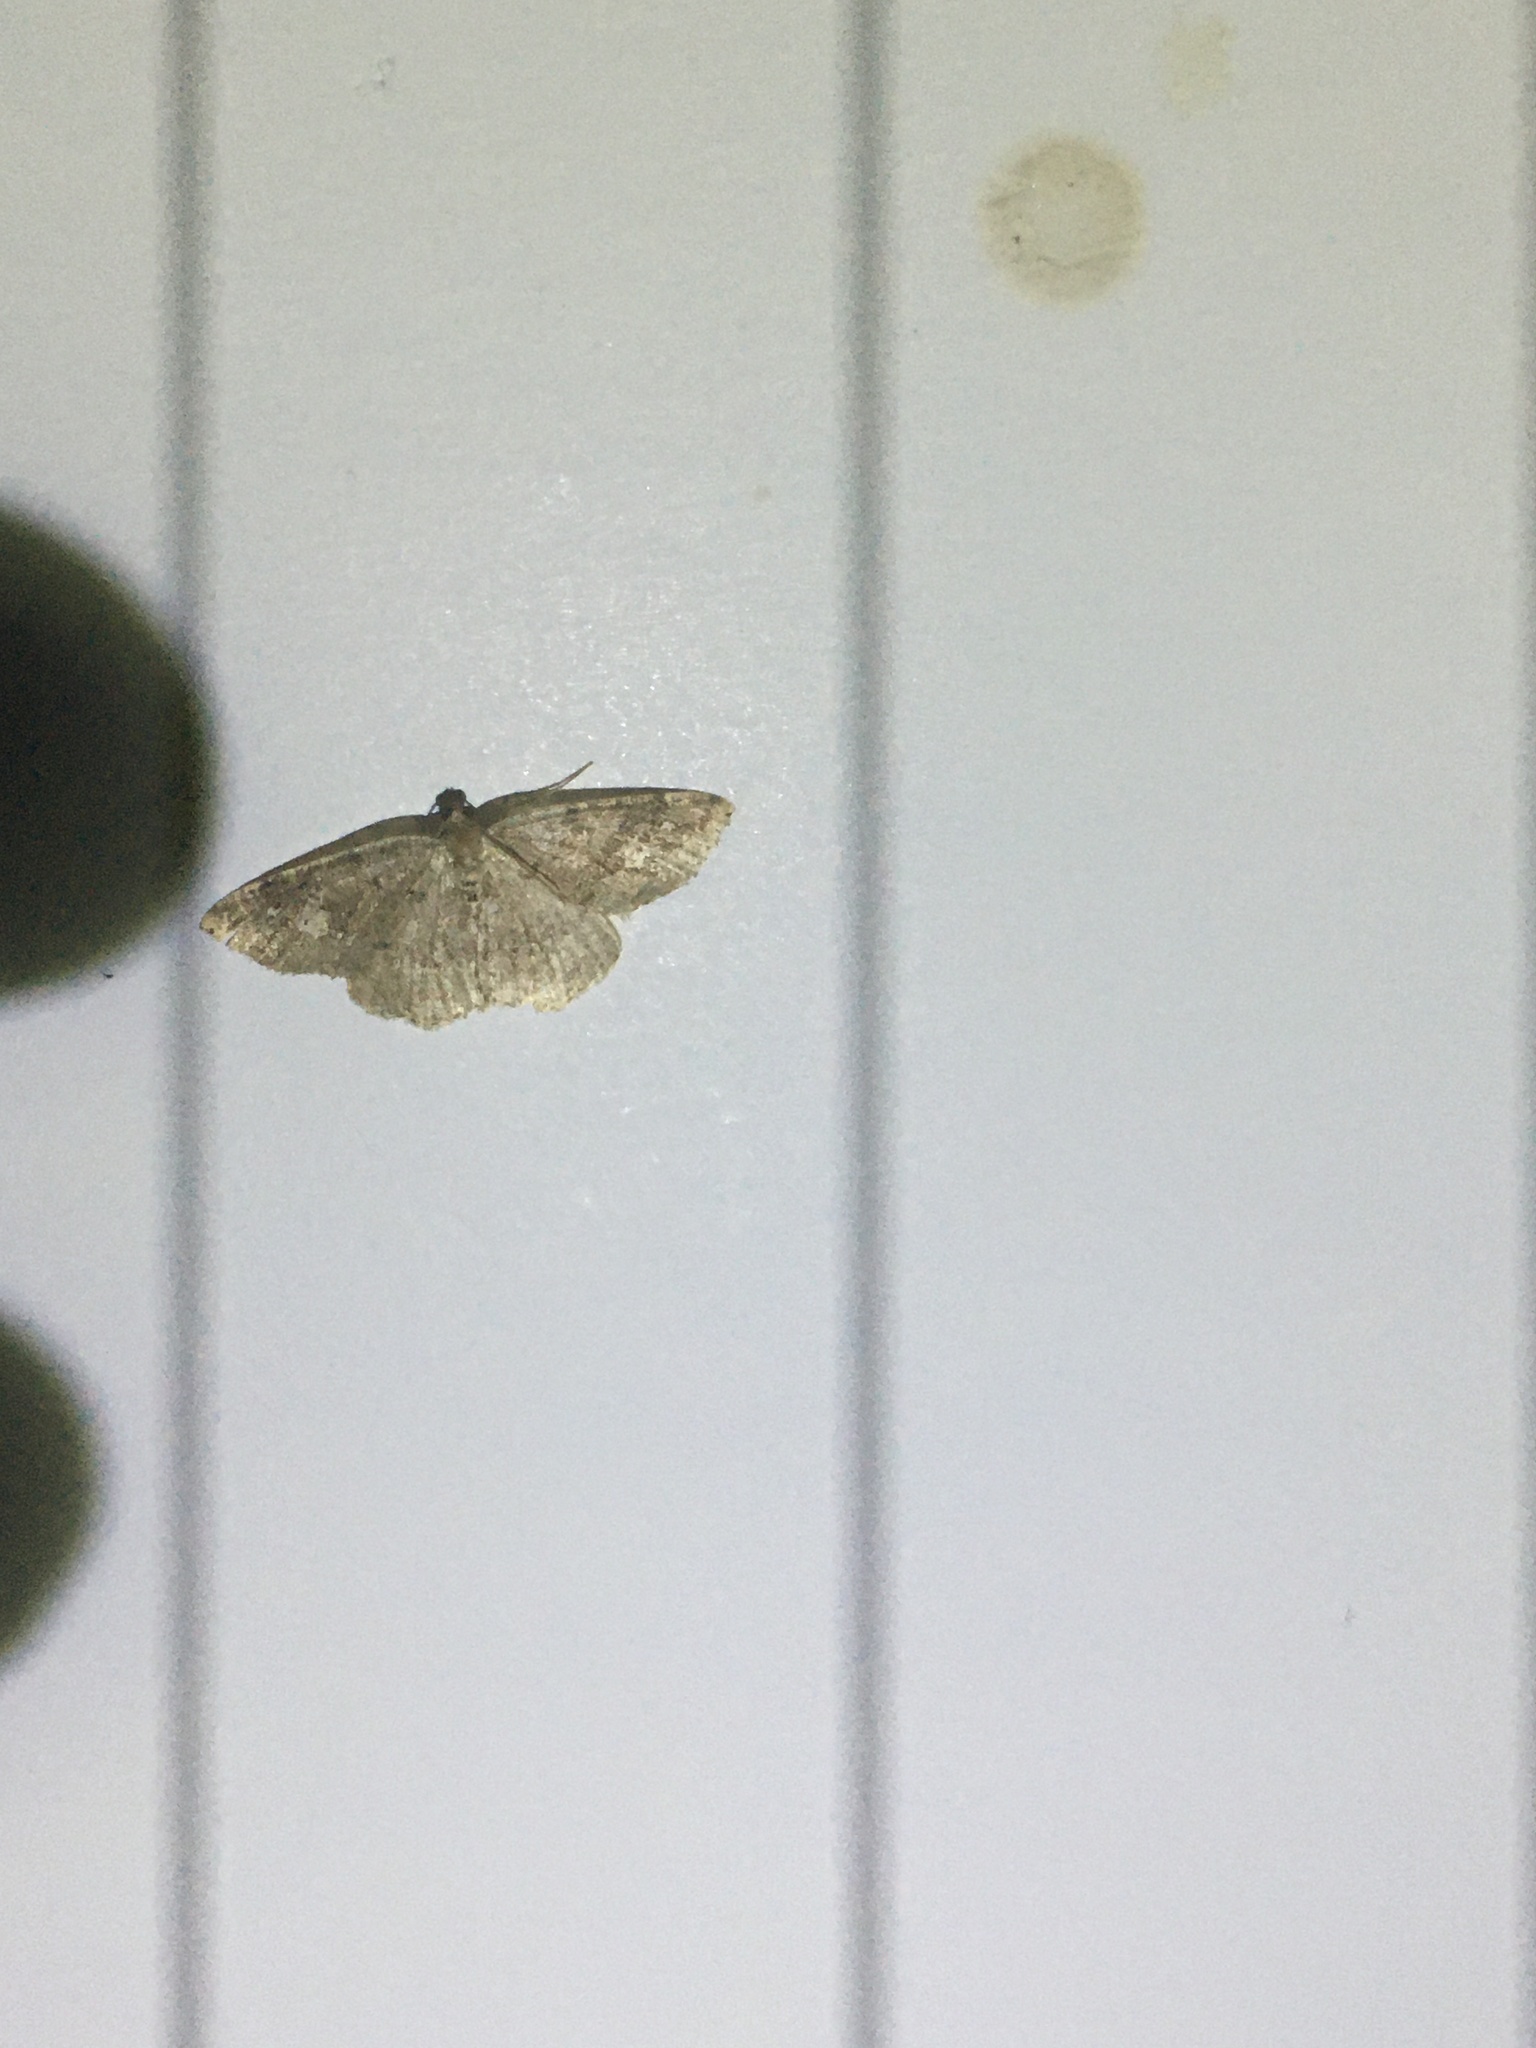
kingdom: Animalia
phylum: Arthropoda
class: Insecta
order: Lepidoptera
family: Geometridae
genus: Homochlodes
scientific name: Homochlodes fritillaria
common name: Pale homochlodes
